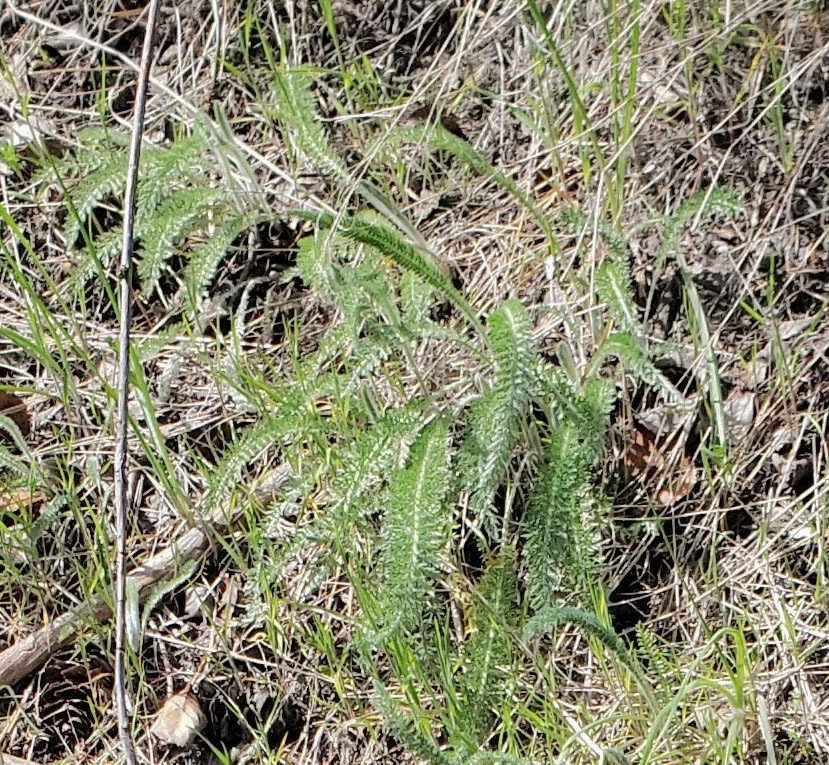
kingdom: Plantae
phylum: Tracheophyta
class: Magnoliopsida
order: Asterales
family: Asteraceae
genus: Achillea
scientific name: Achillea millefolium
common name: Yarrow
